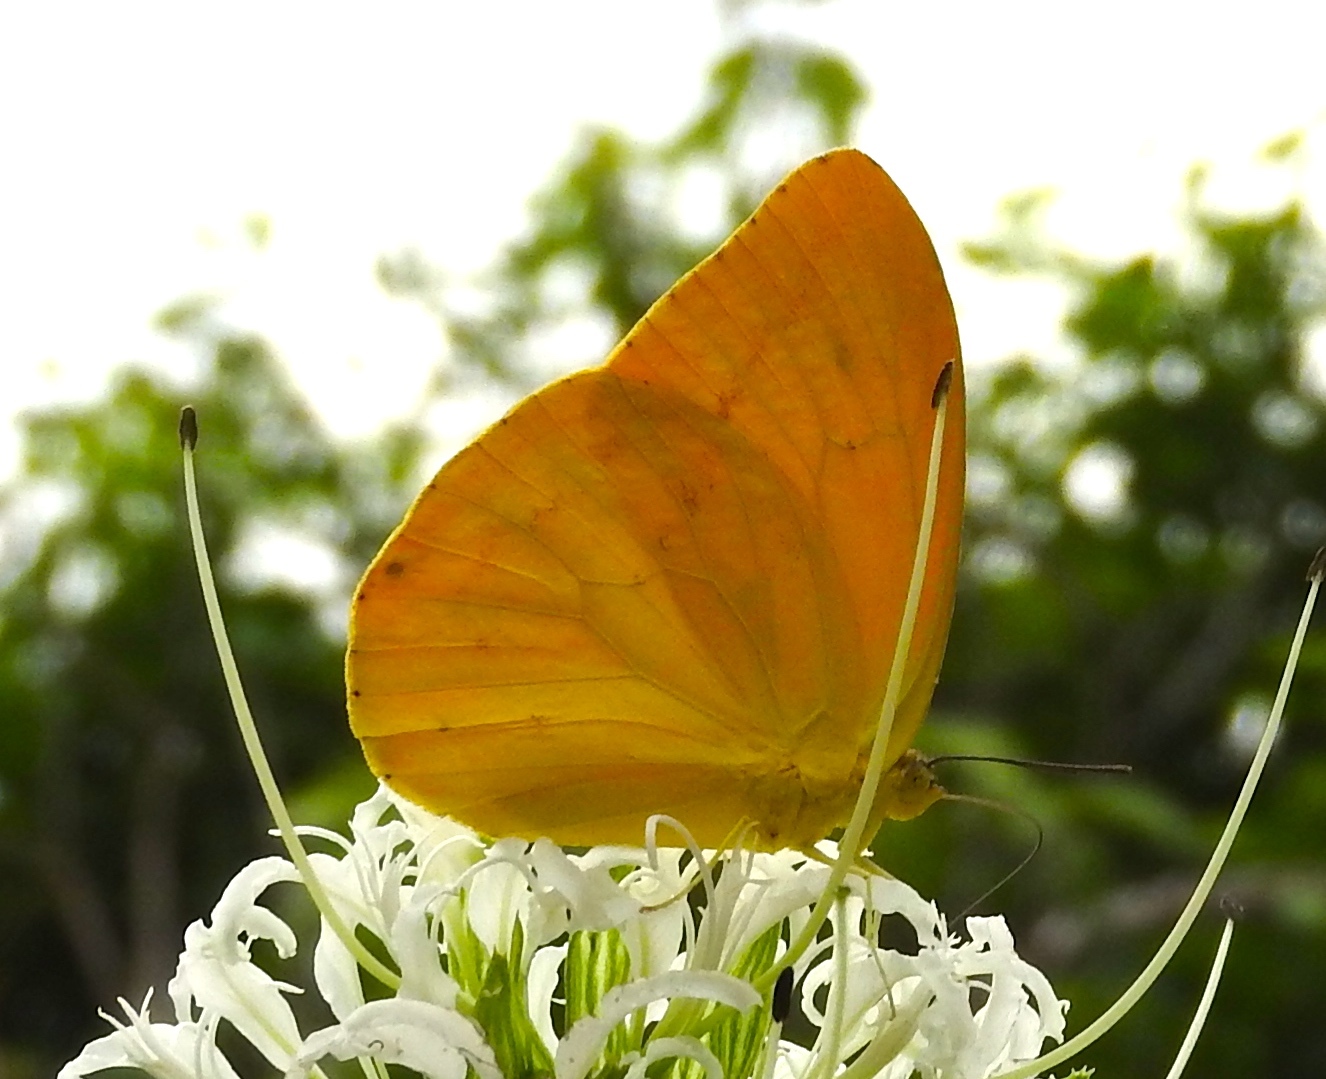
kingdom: Animalia
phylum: Arthropoda
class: Insecta
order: Lepidoptera
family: Pieridae
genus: Phoebis
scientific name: Phoebis agarithe
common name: Large orange sulphur
